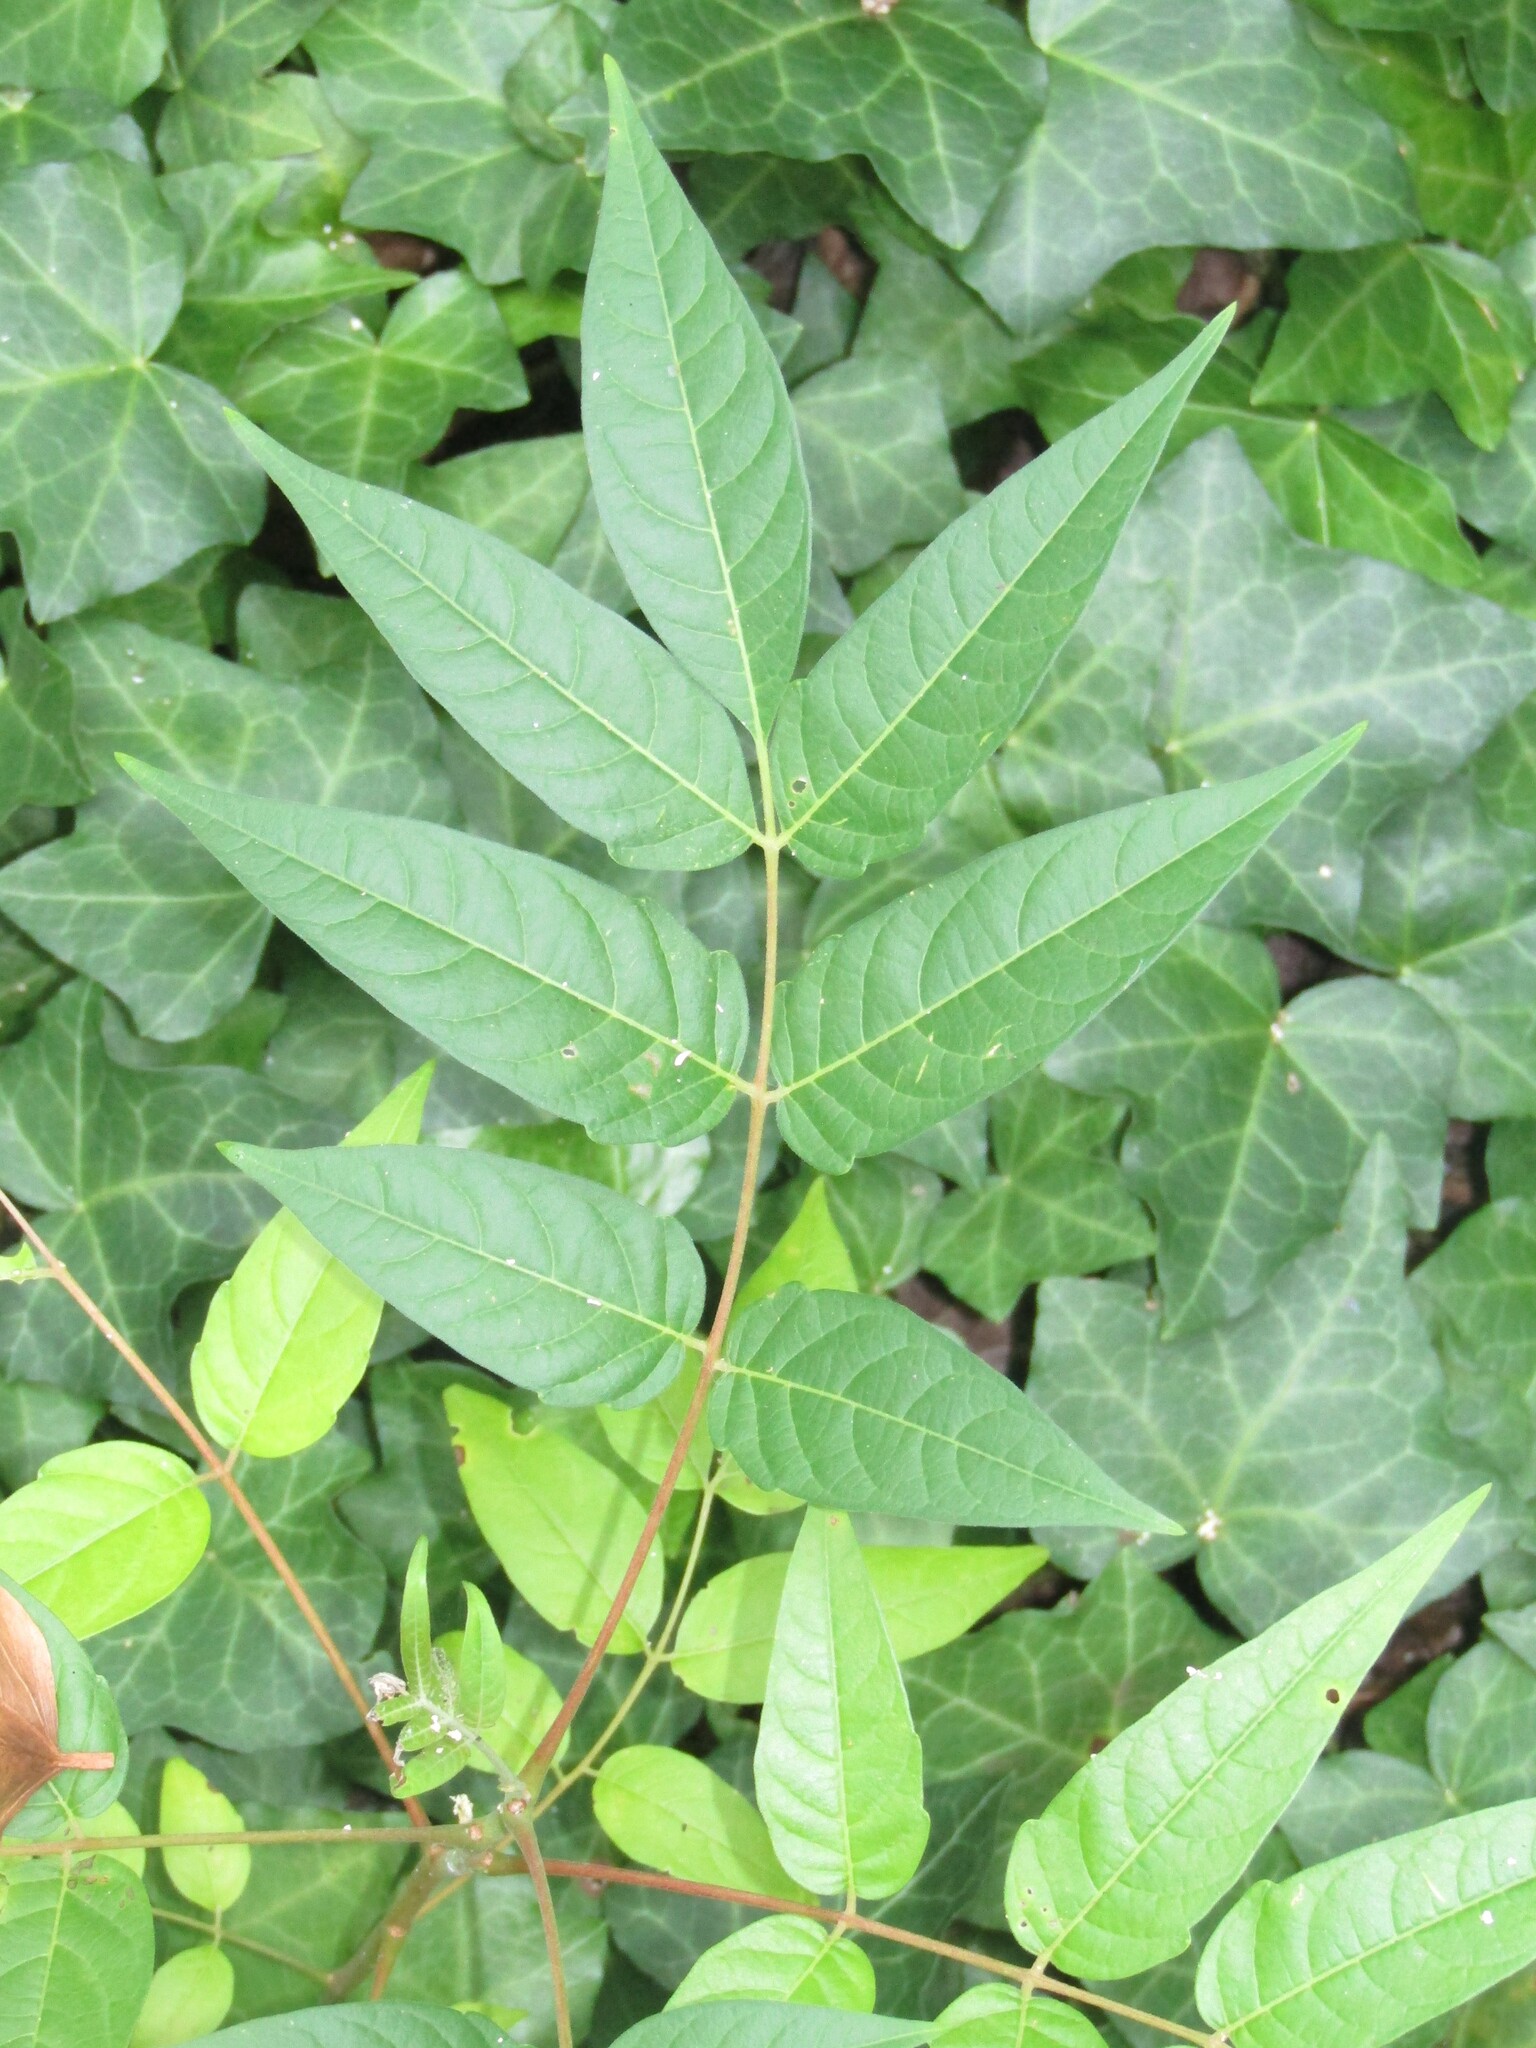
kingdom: Plantae
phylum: Tracheophyta
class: Magnoliopsida
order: Sapindales
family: Simaroubaceae
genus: Ailanthus
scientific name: Ailanthus altissima
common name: Tree-of-heaven
